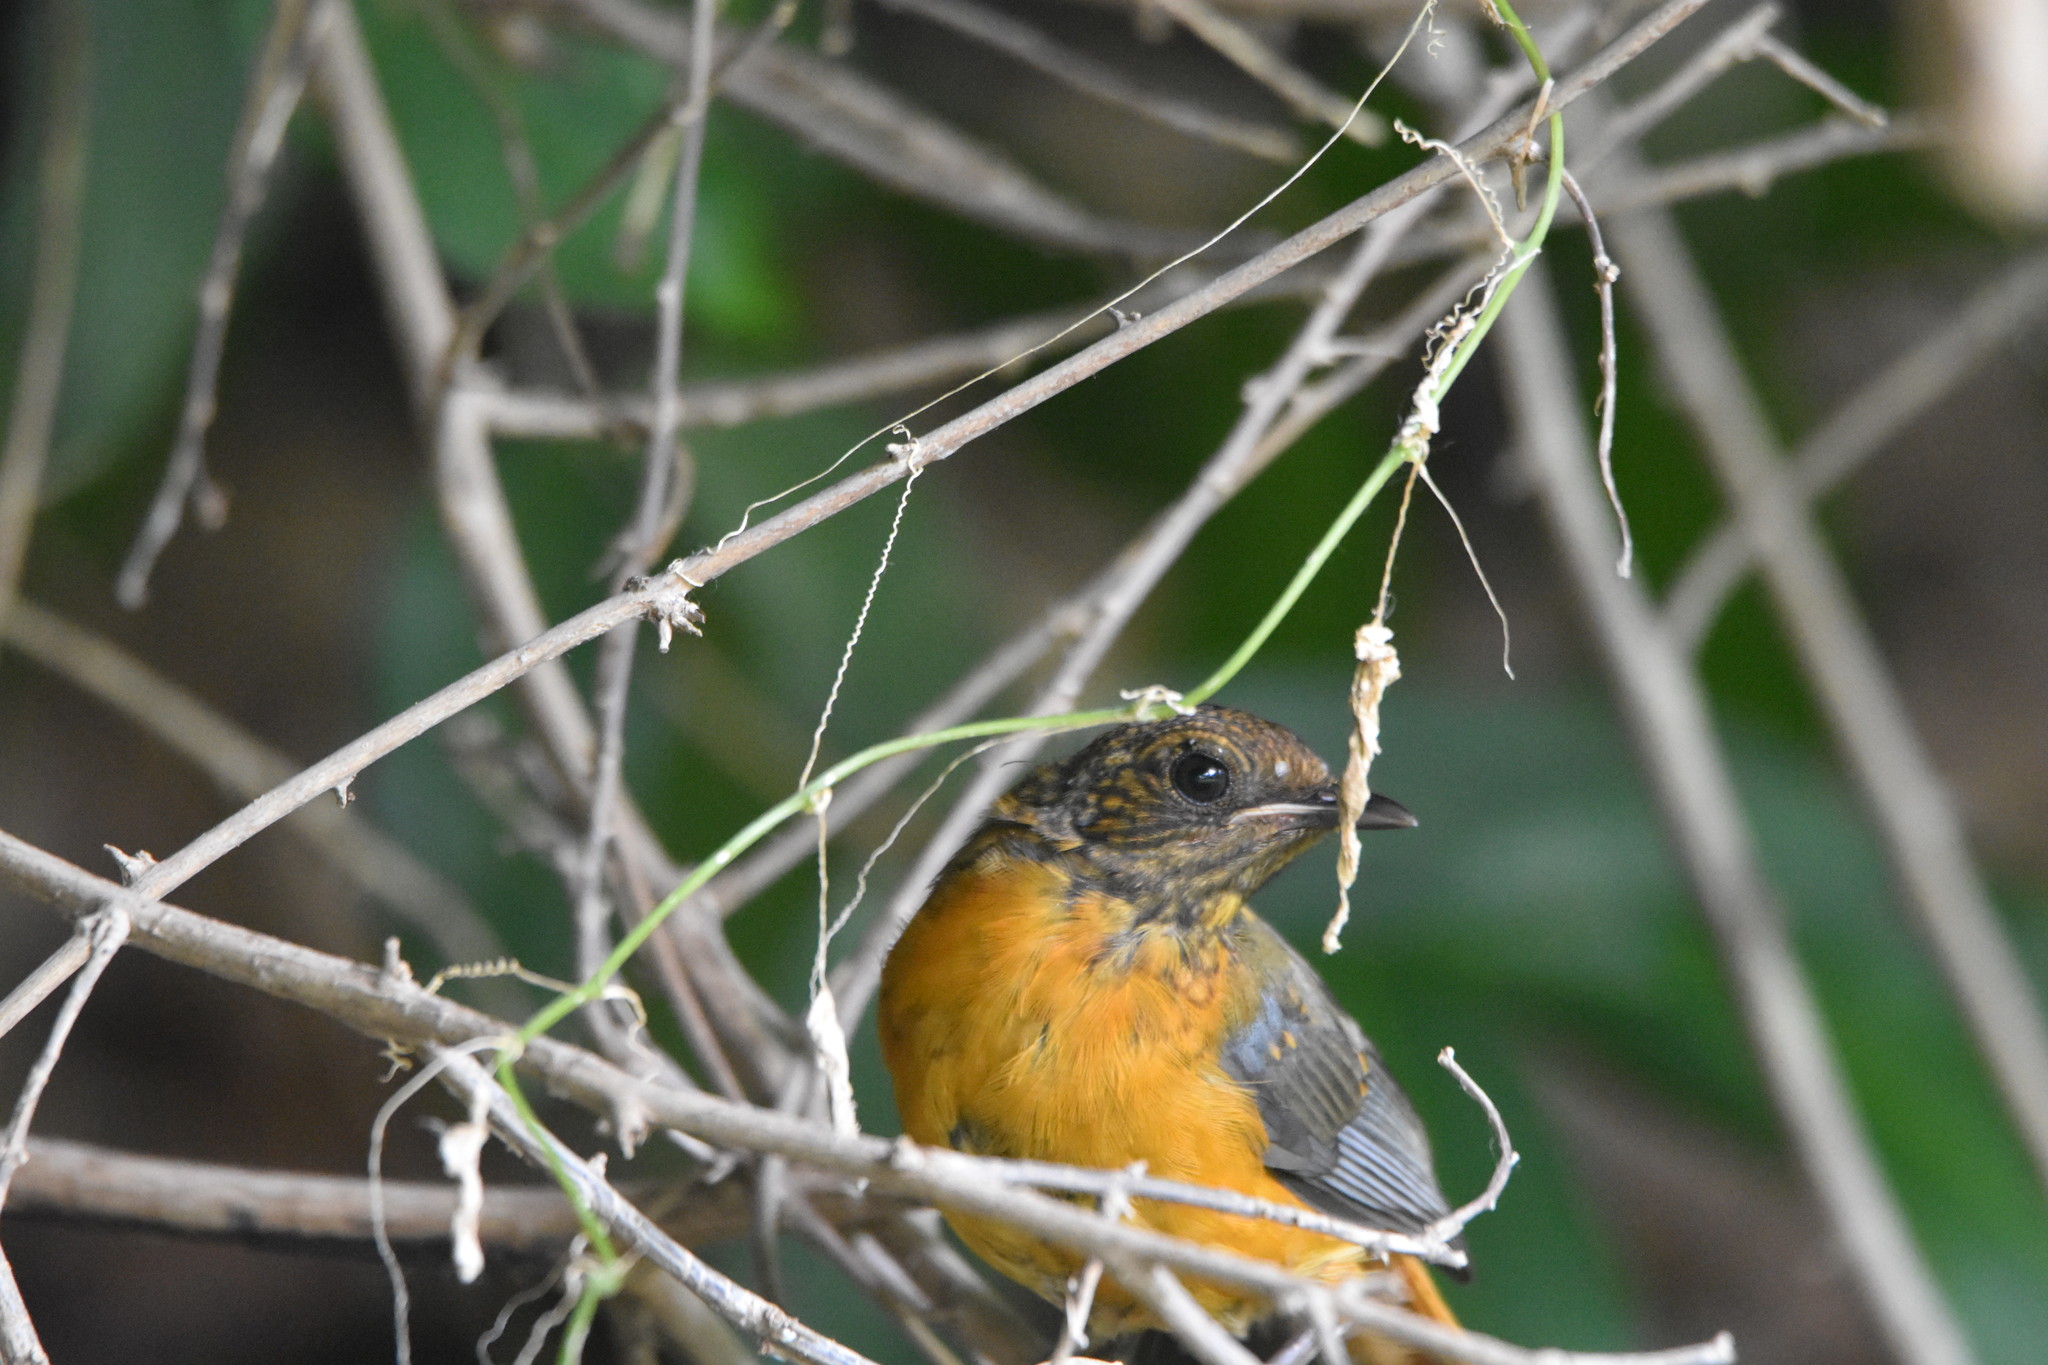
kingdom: Animalia
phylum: Chordata
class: Aves
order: Passeriformes
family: Muscicapidae
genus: Cossypha
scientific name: Cossypha heuglini
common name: White-browed robin-chat
